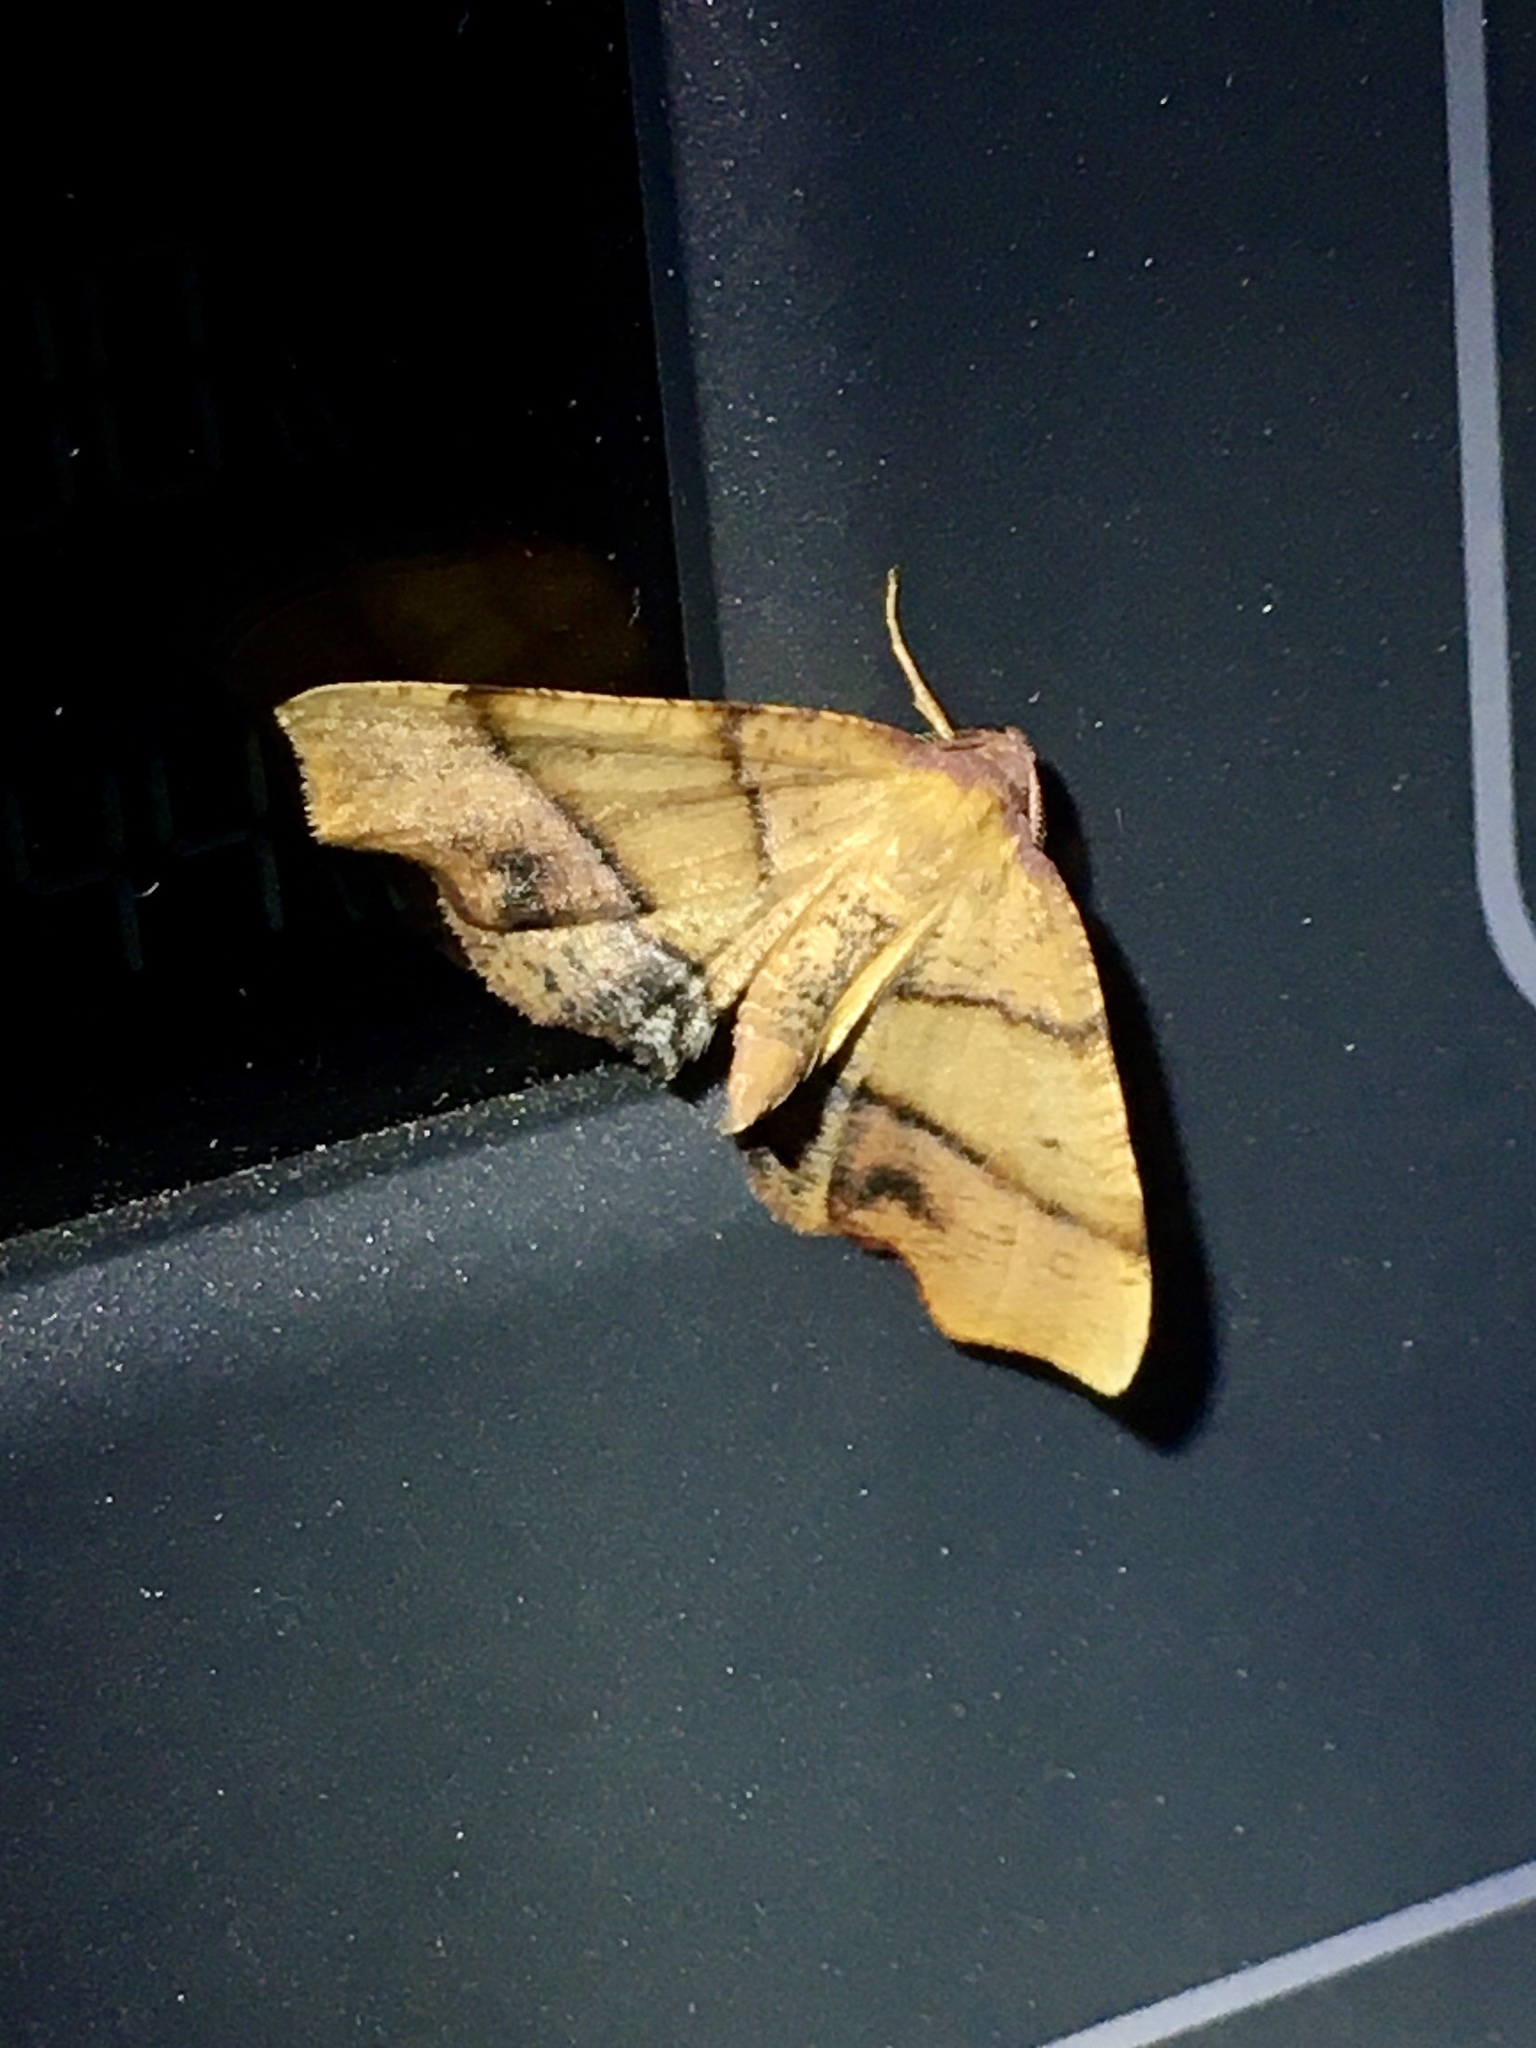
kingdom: Animalia
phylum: Arthropoda
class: Insecta
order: Lepidoptera
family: Geometridae
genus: Plagodis
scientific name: Plagodis phlogosaria
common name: Straight-lined plagodis
